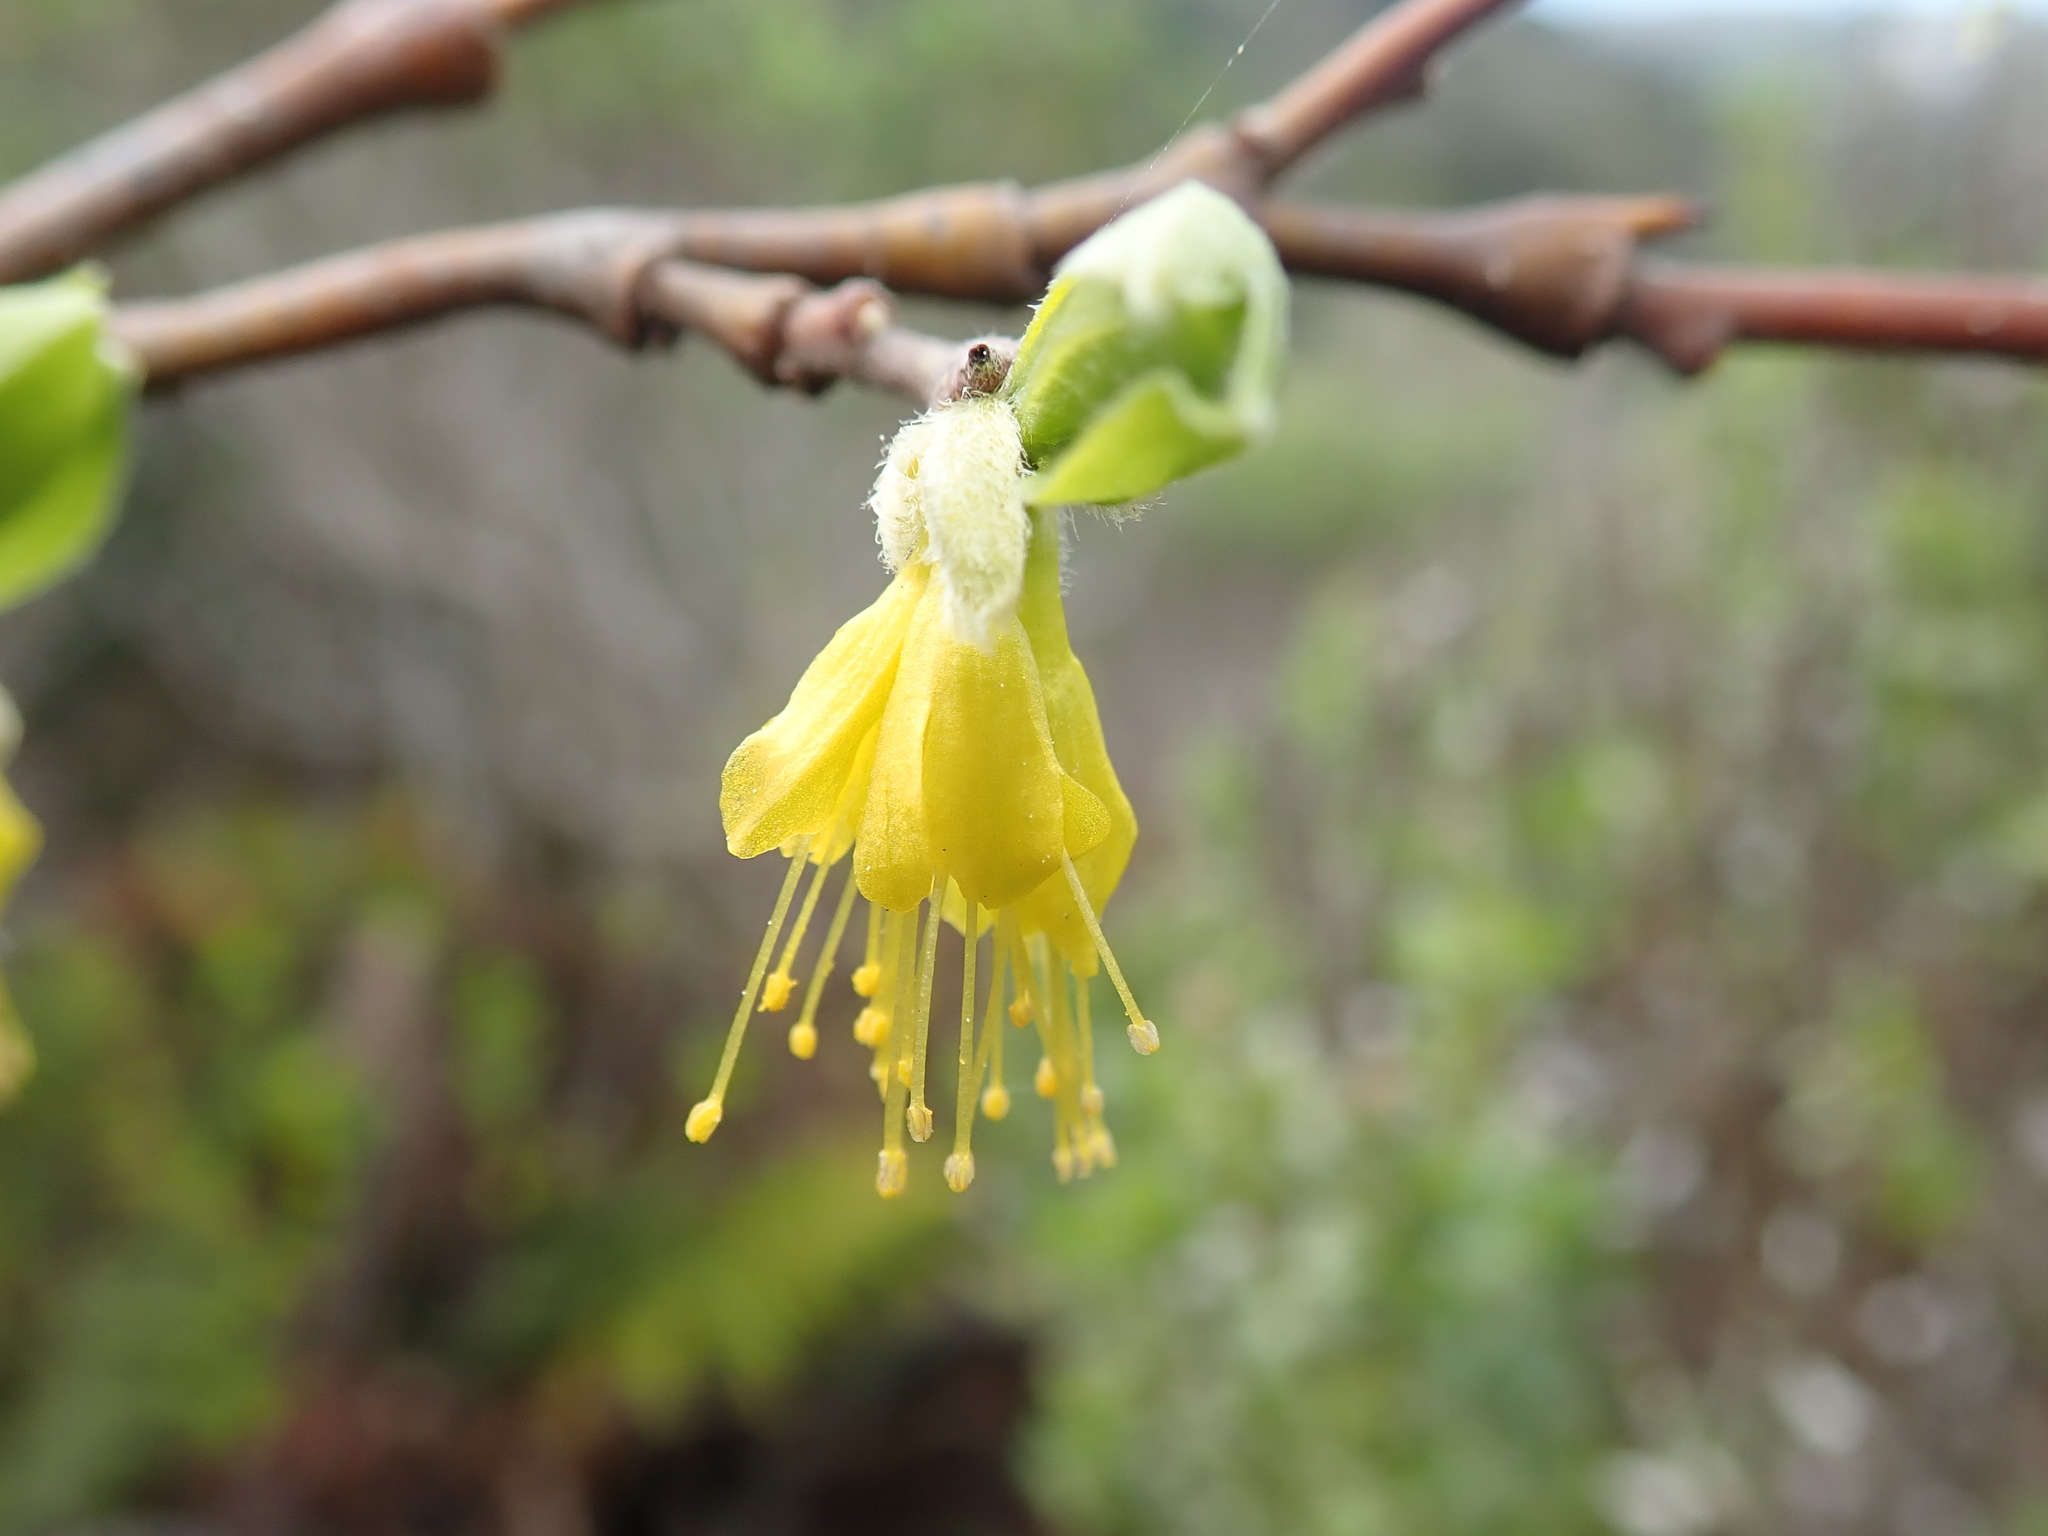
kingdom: Plantae
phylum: Tracheophyta
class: Magnoliopsida
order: Malvales
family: Thymelaeaceae
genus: Dirca
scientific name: Dirca occidentalis
